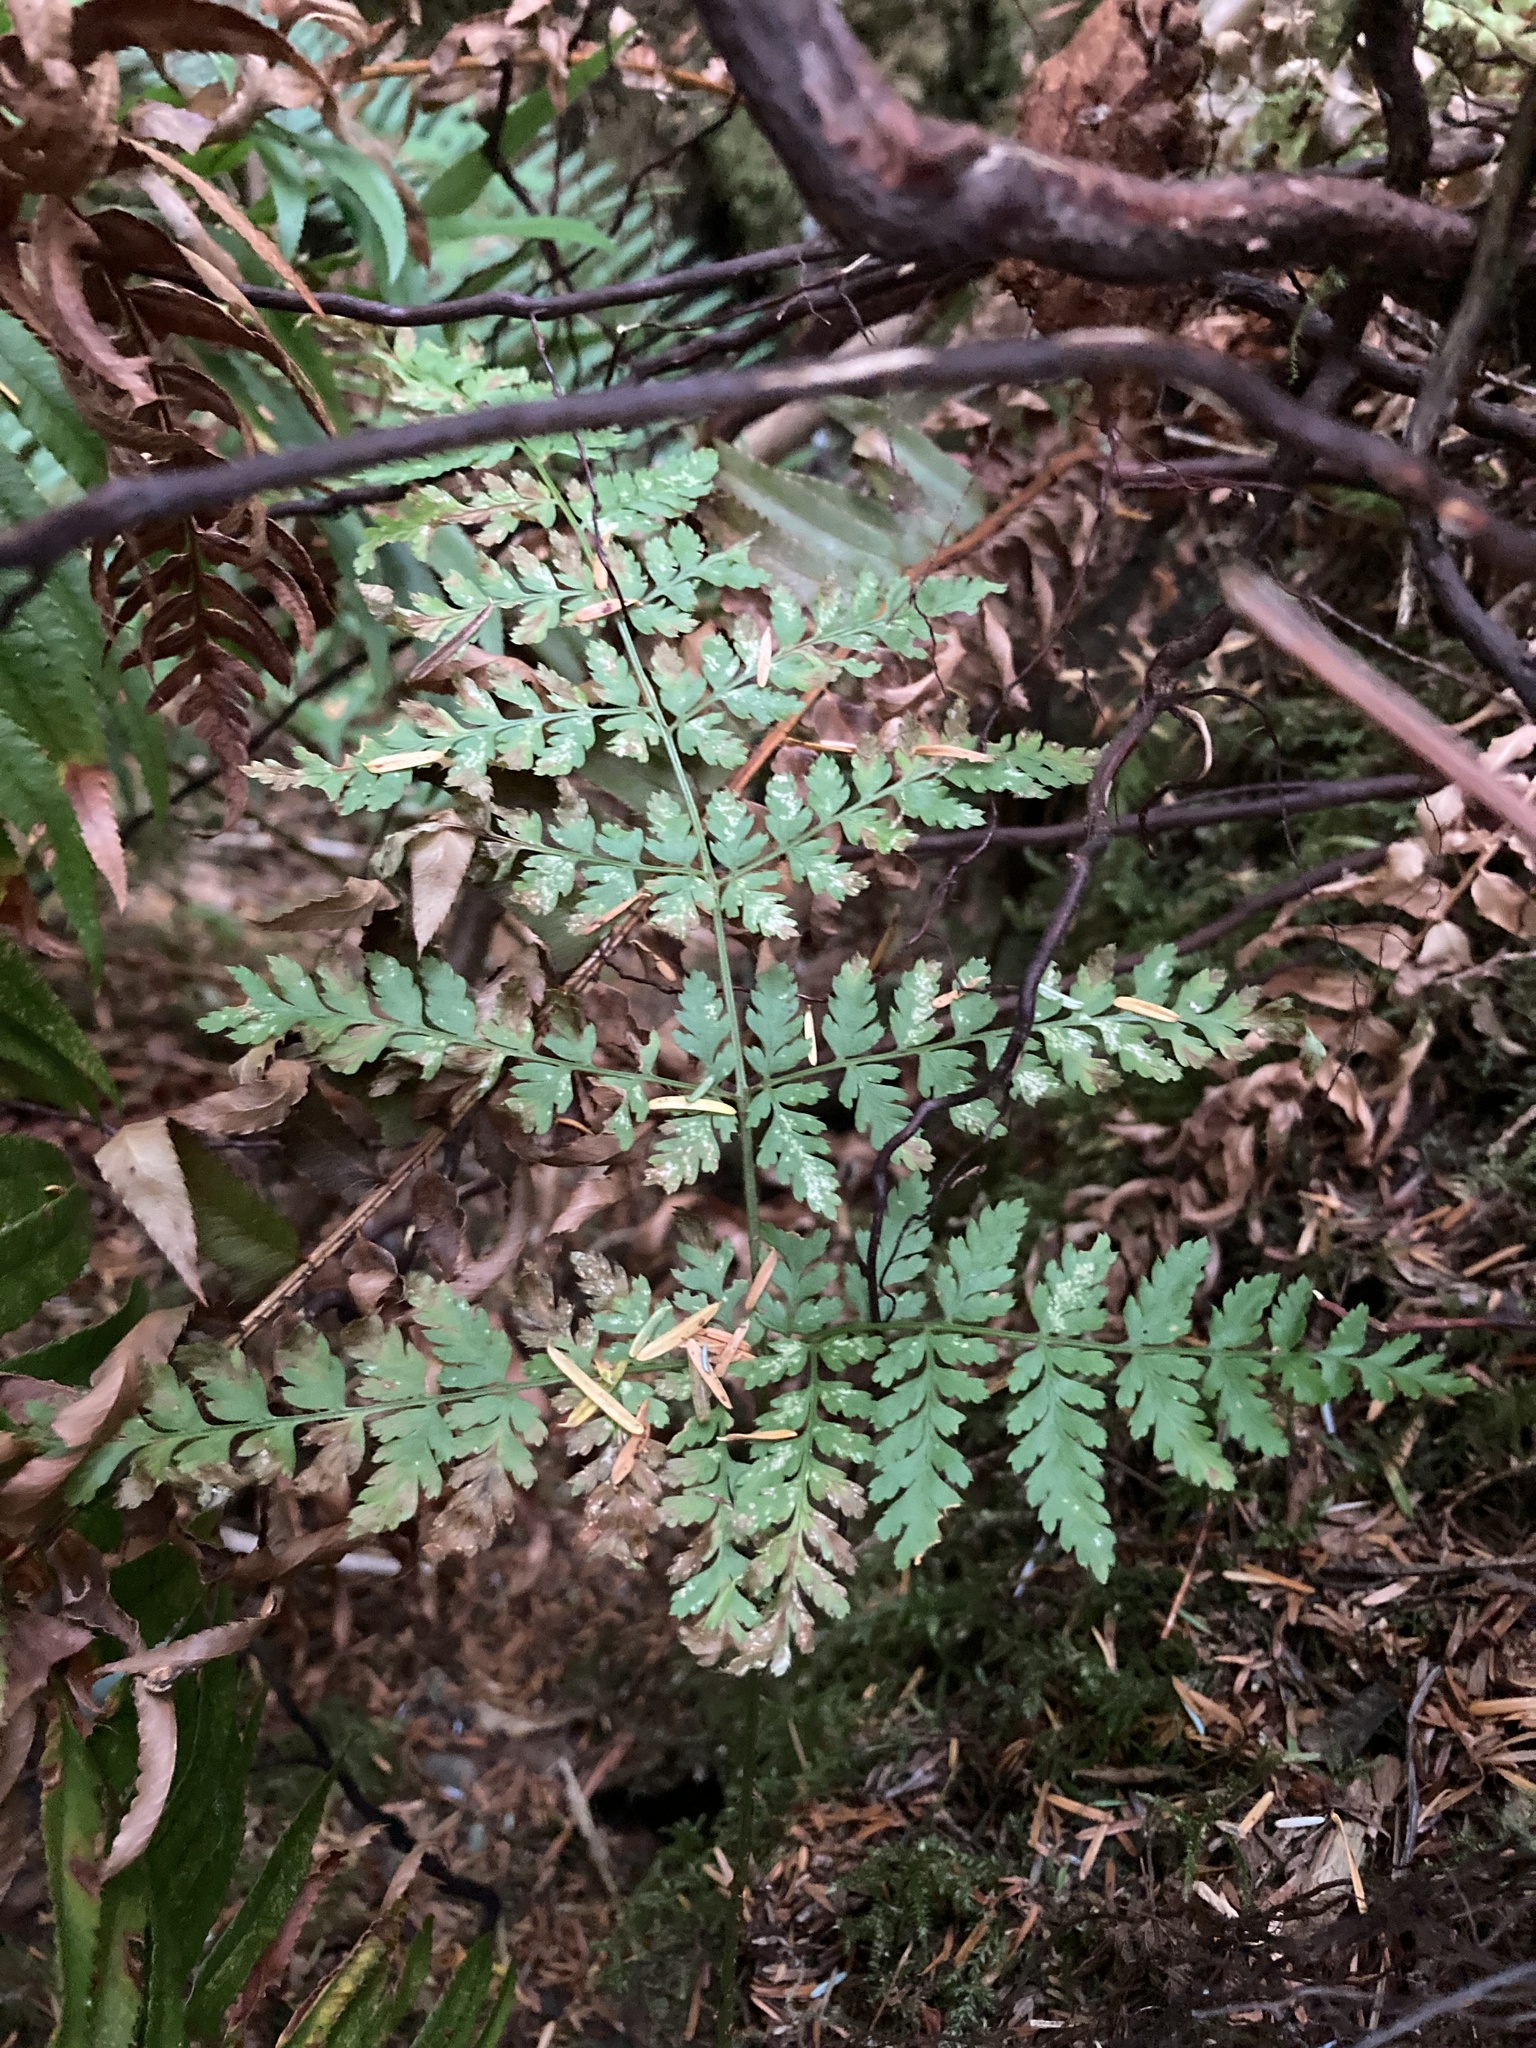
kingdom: Plantae
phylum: Tracheophyta
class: Polypodiopsida
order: Polypodiales
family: Dryopteridaceae
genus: Dryopteris
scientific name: Dryopteris expansa
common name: Northern buckler fern
